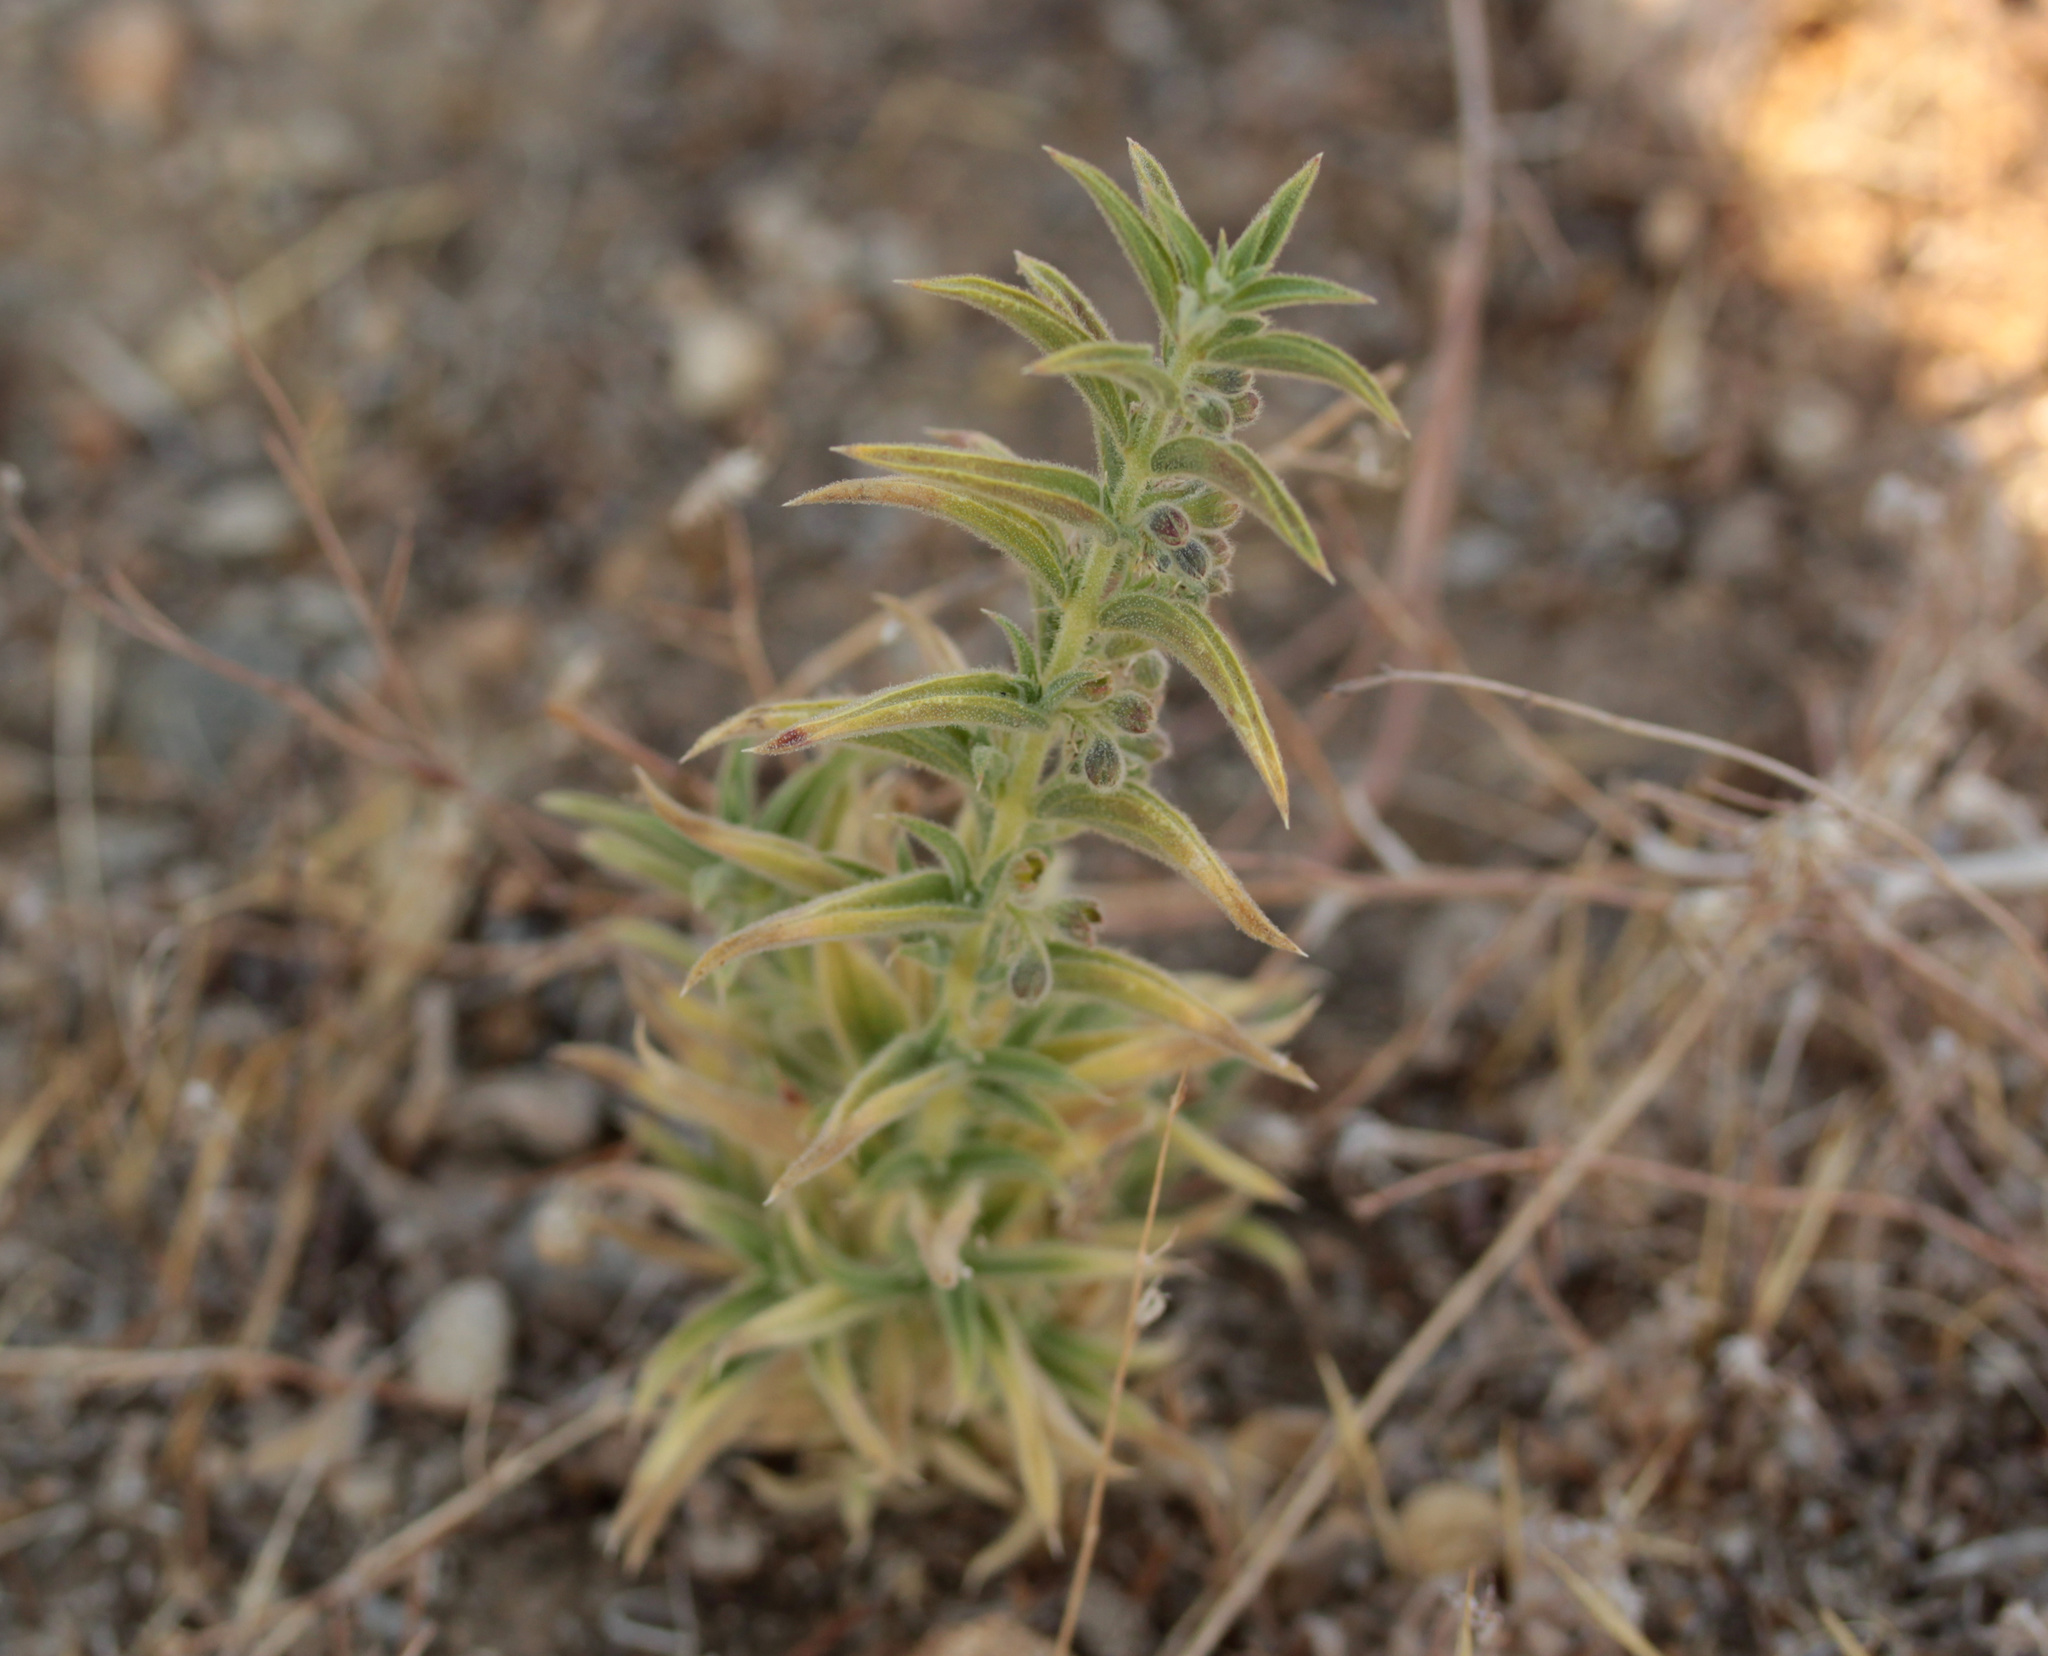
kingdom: Plantae
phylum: Tracheophyta
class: Magnoliopsida
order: Lamiales
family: Lamiaceae
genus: Trichostema
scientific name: Trichostema lanceolatum
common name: Vinegar-weed
